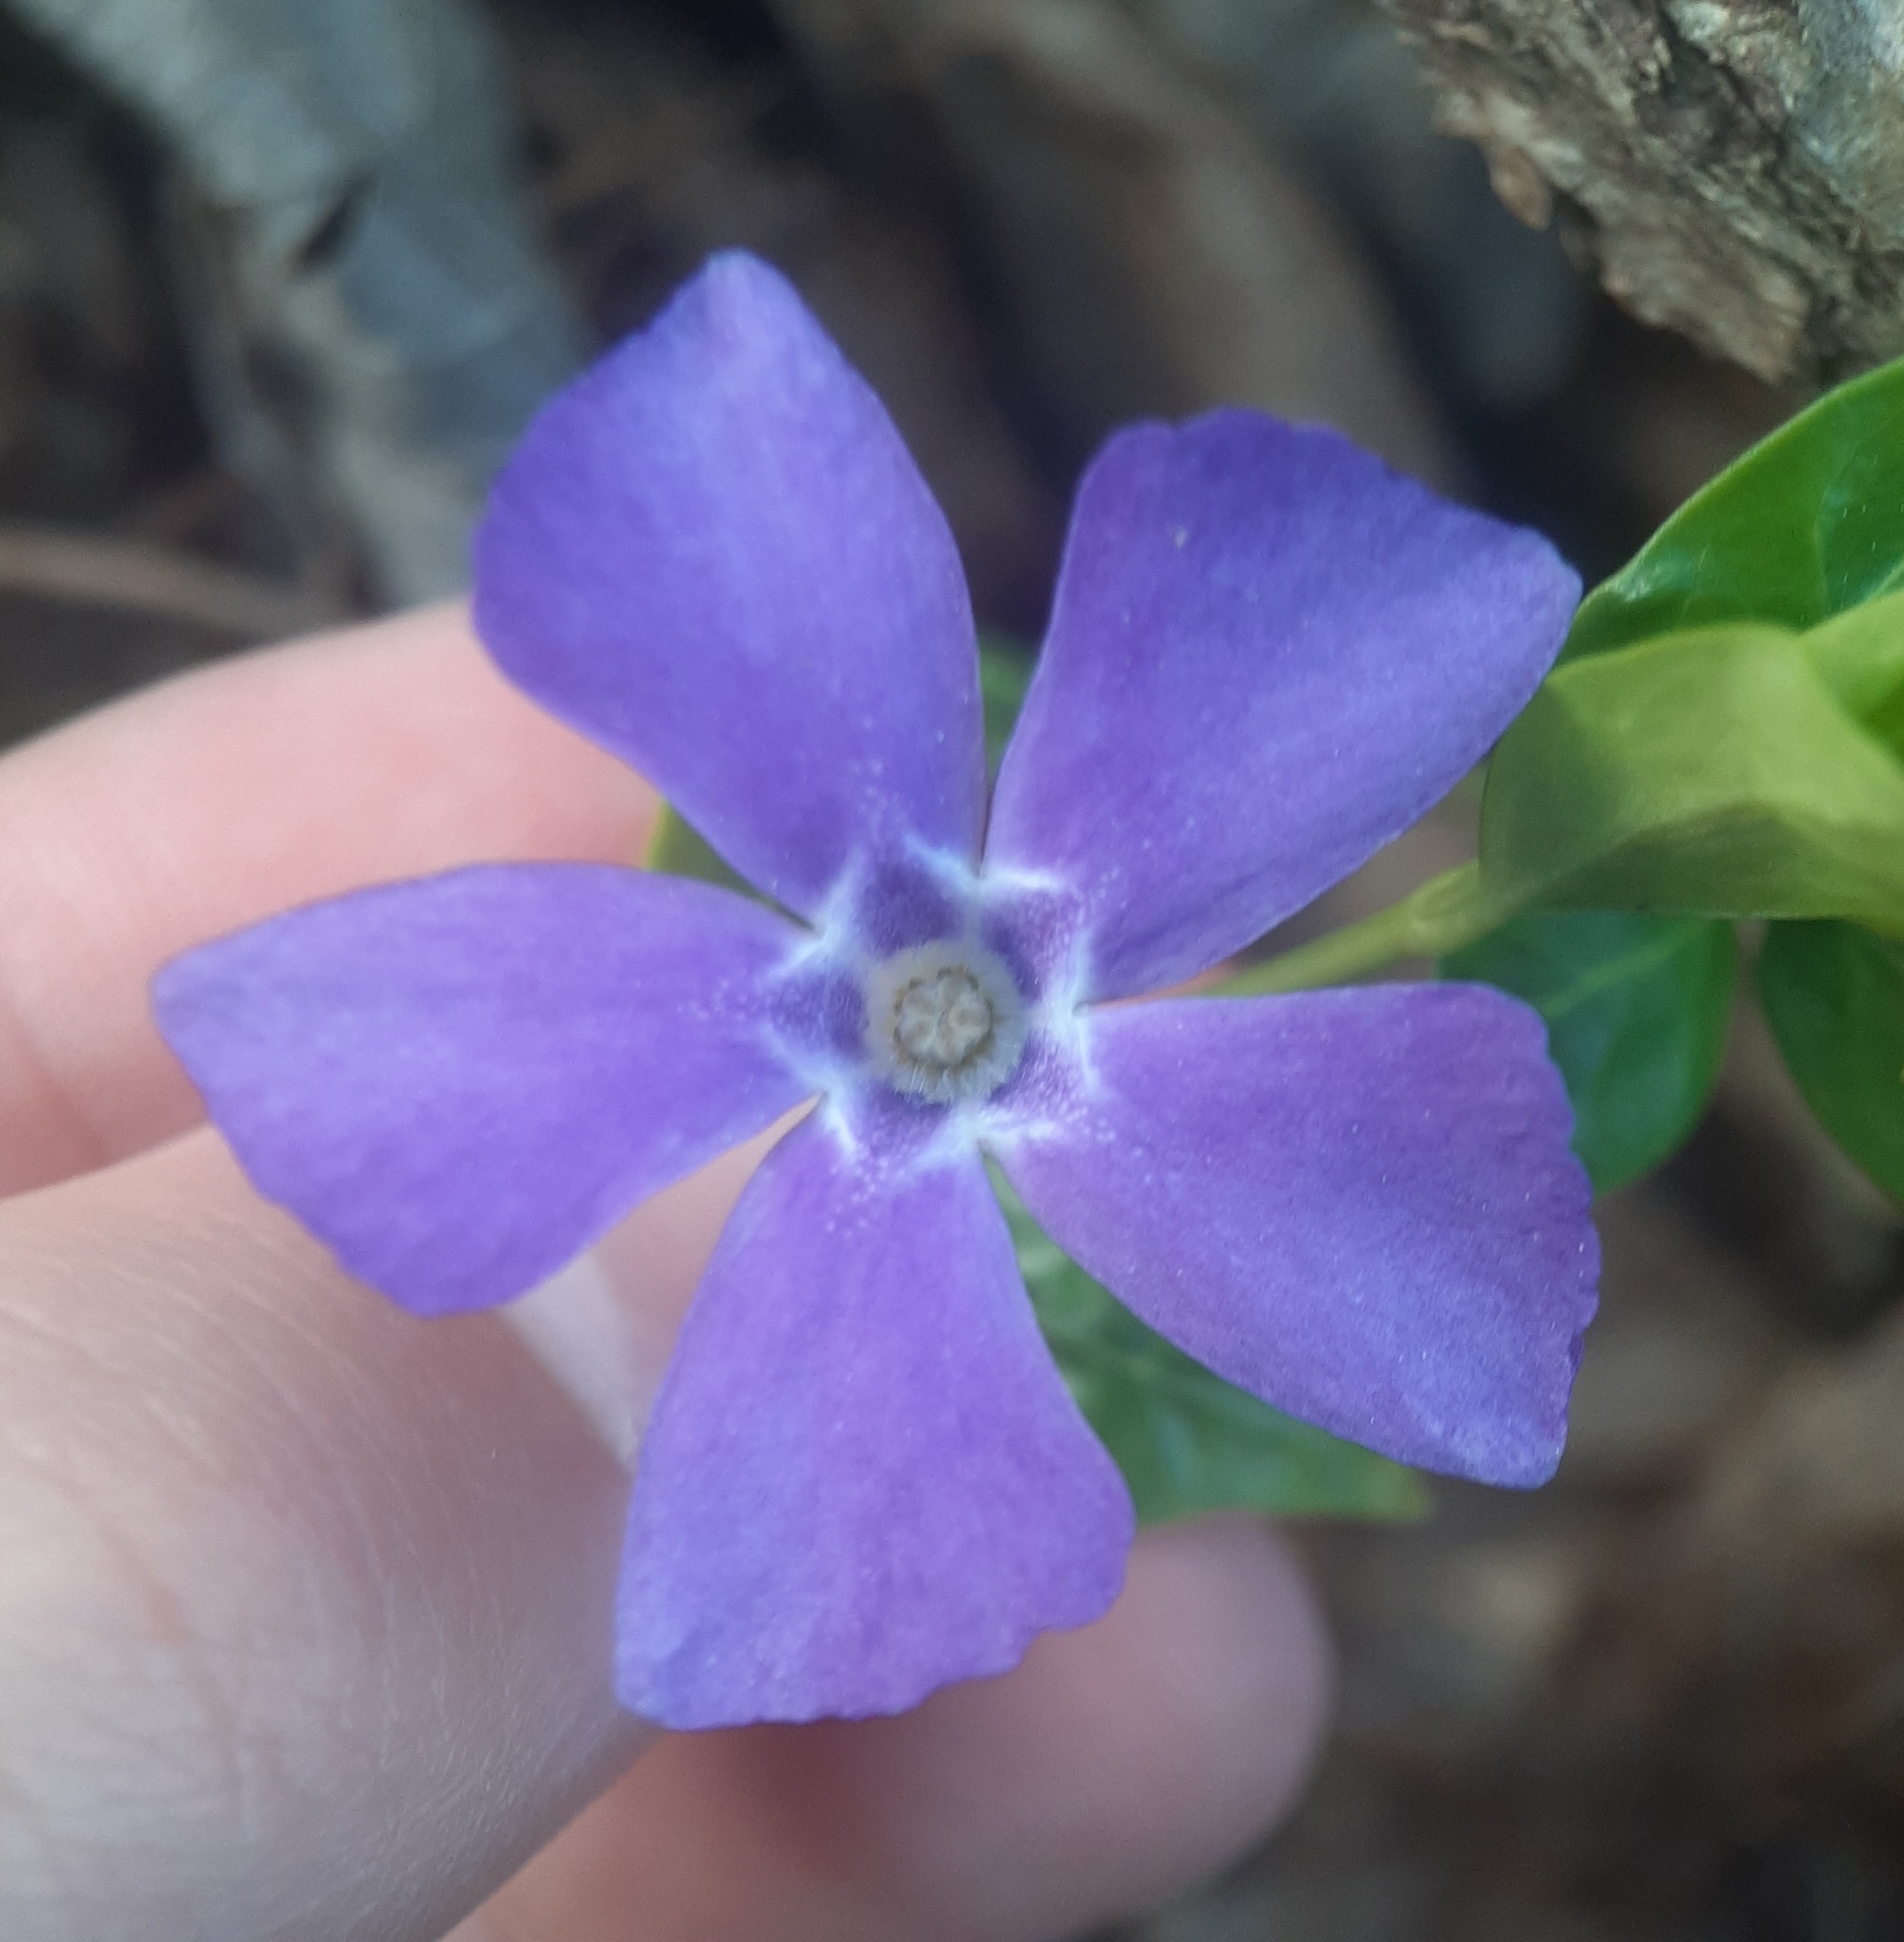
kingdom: Plantae
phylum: Tracheophyta
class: Magnoliopsida
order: Gentianales
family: Apocynaceae
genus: Vinca
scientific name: Vinca minor
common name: Lesser periwinkle
